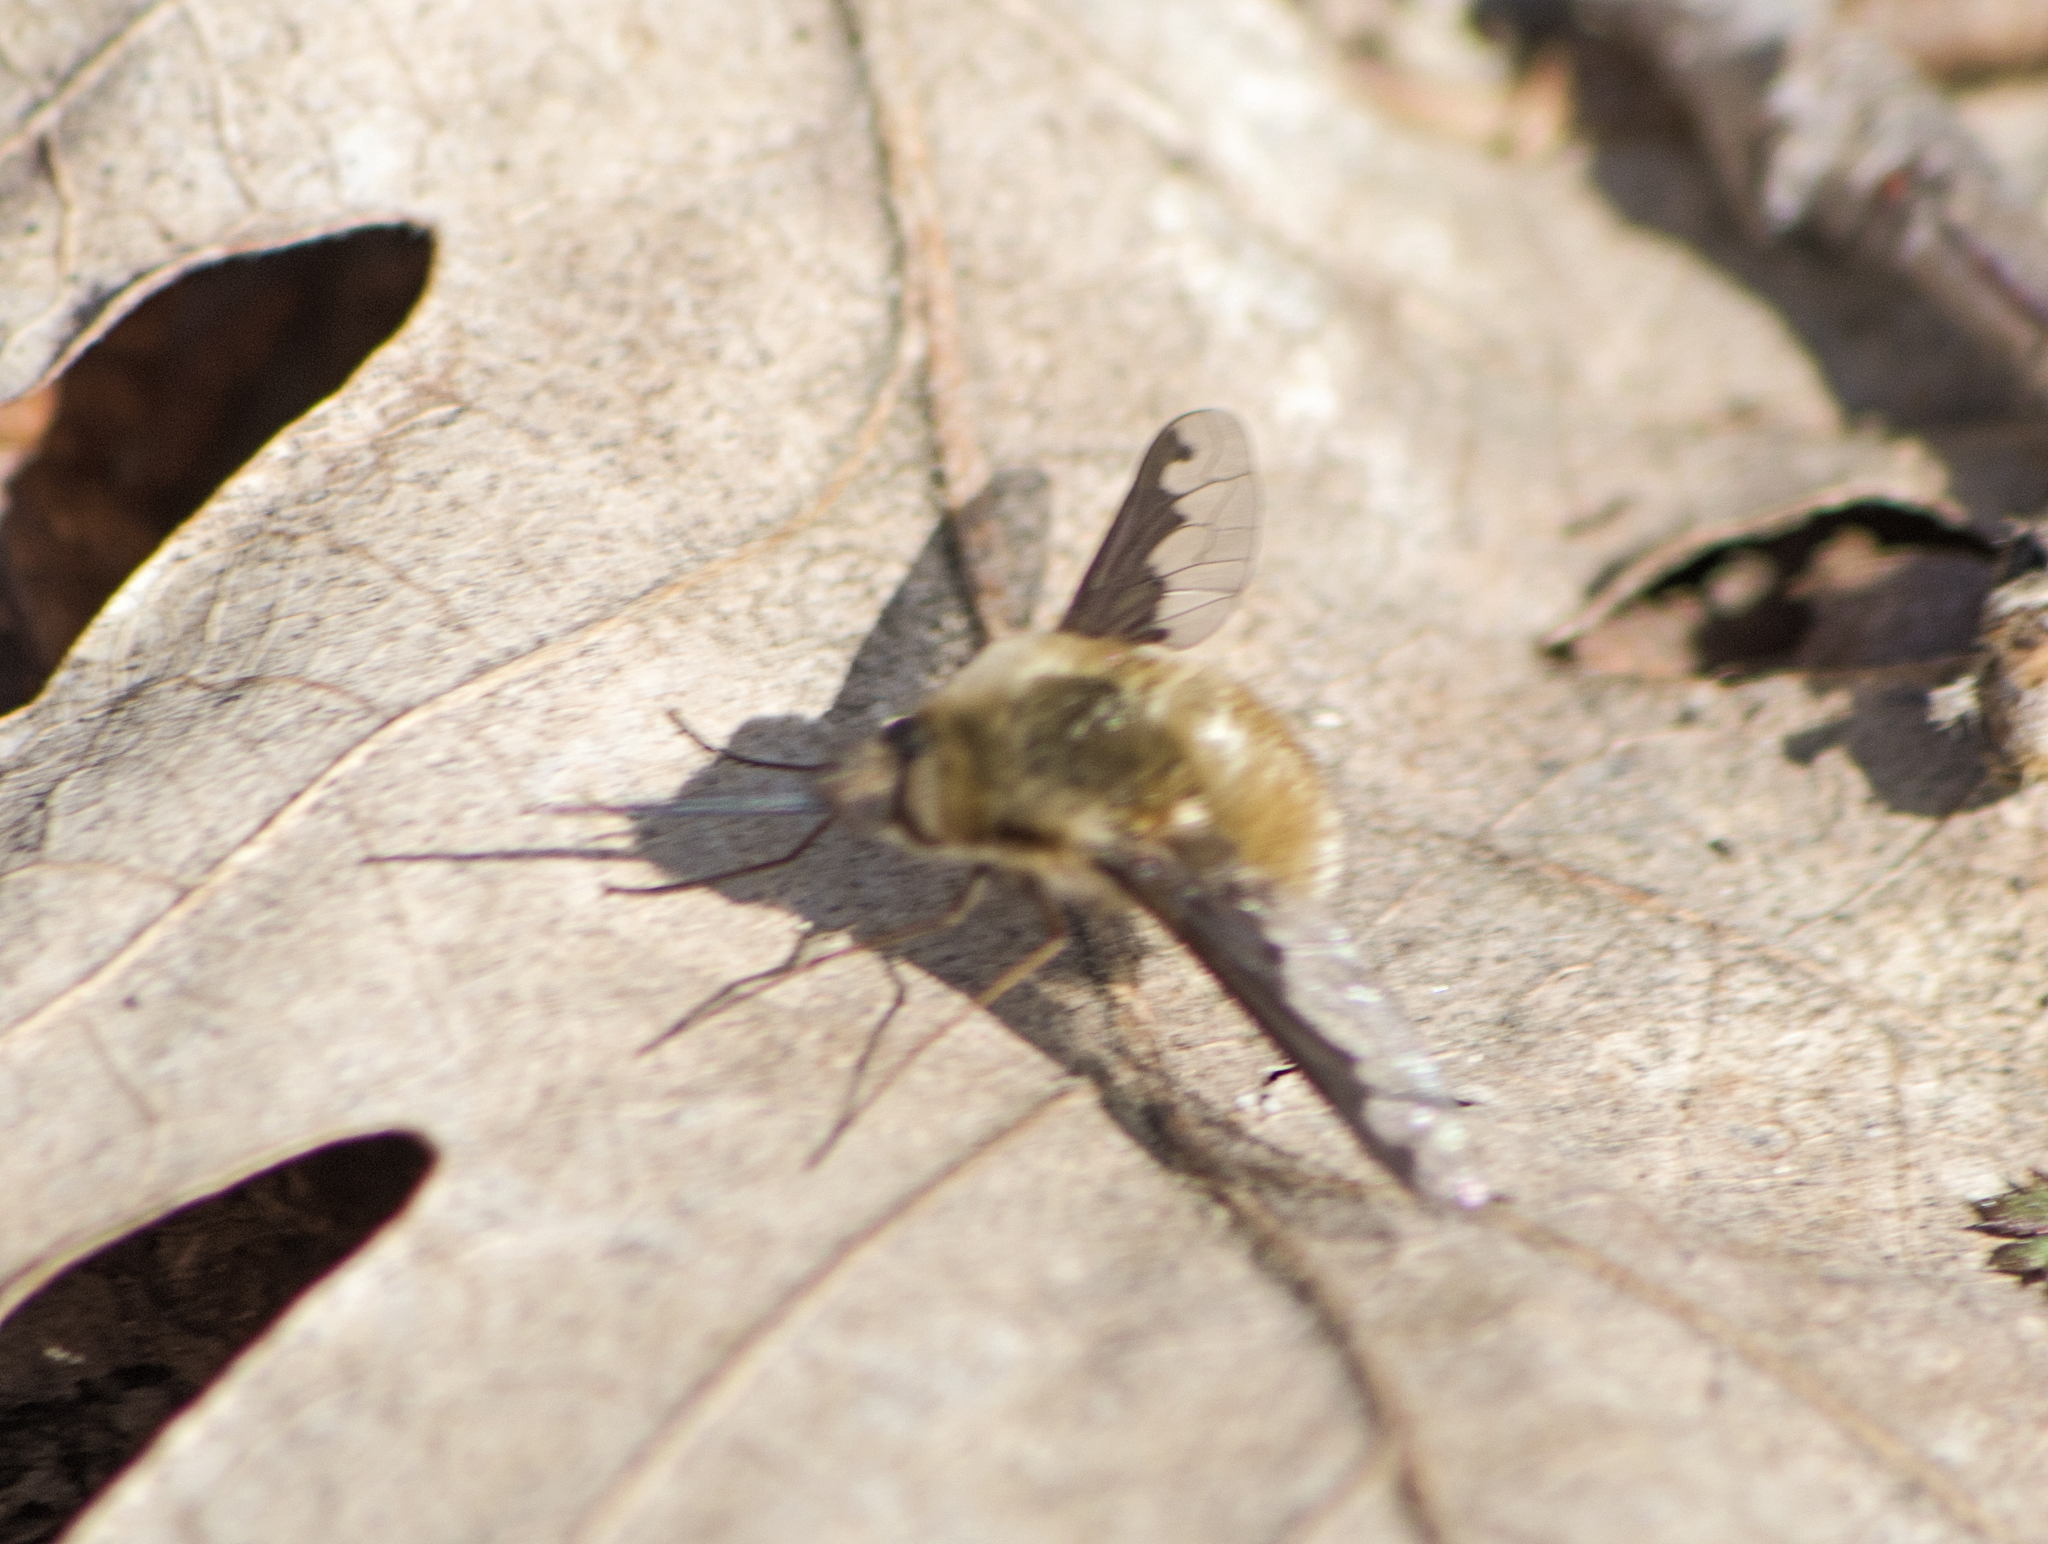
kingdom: Animalia
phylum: Arthropoda
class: Insecta
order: Diptera
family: Bombyliidae
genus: Bombylius
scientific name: Bombylius major
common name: Bee fly
